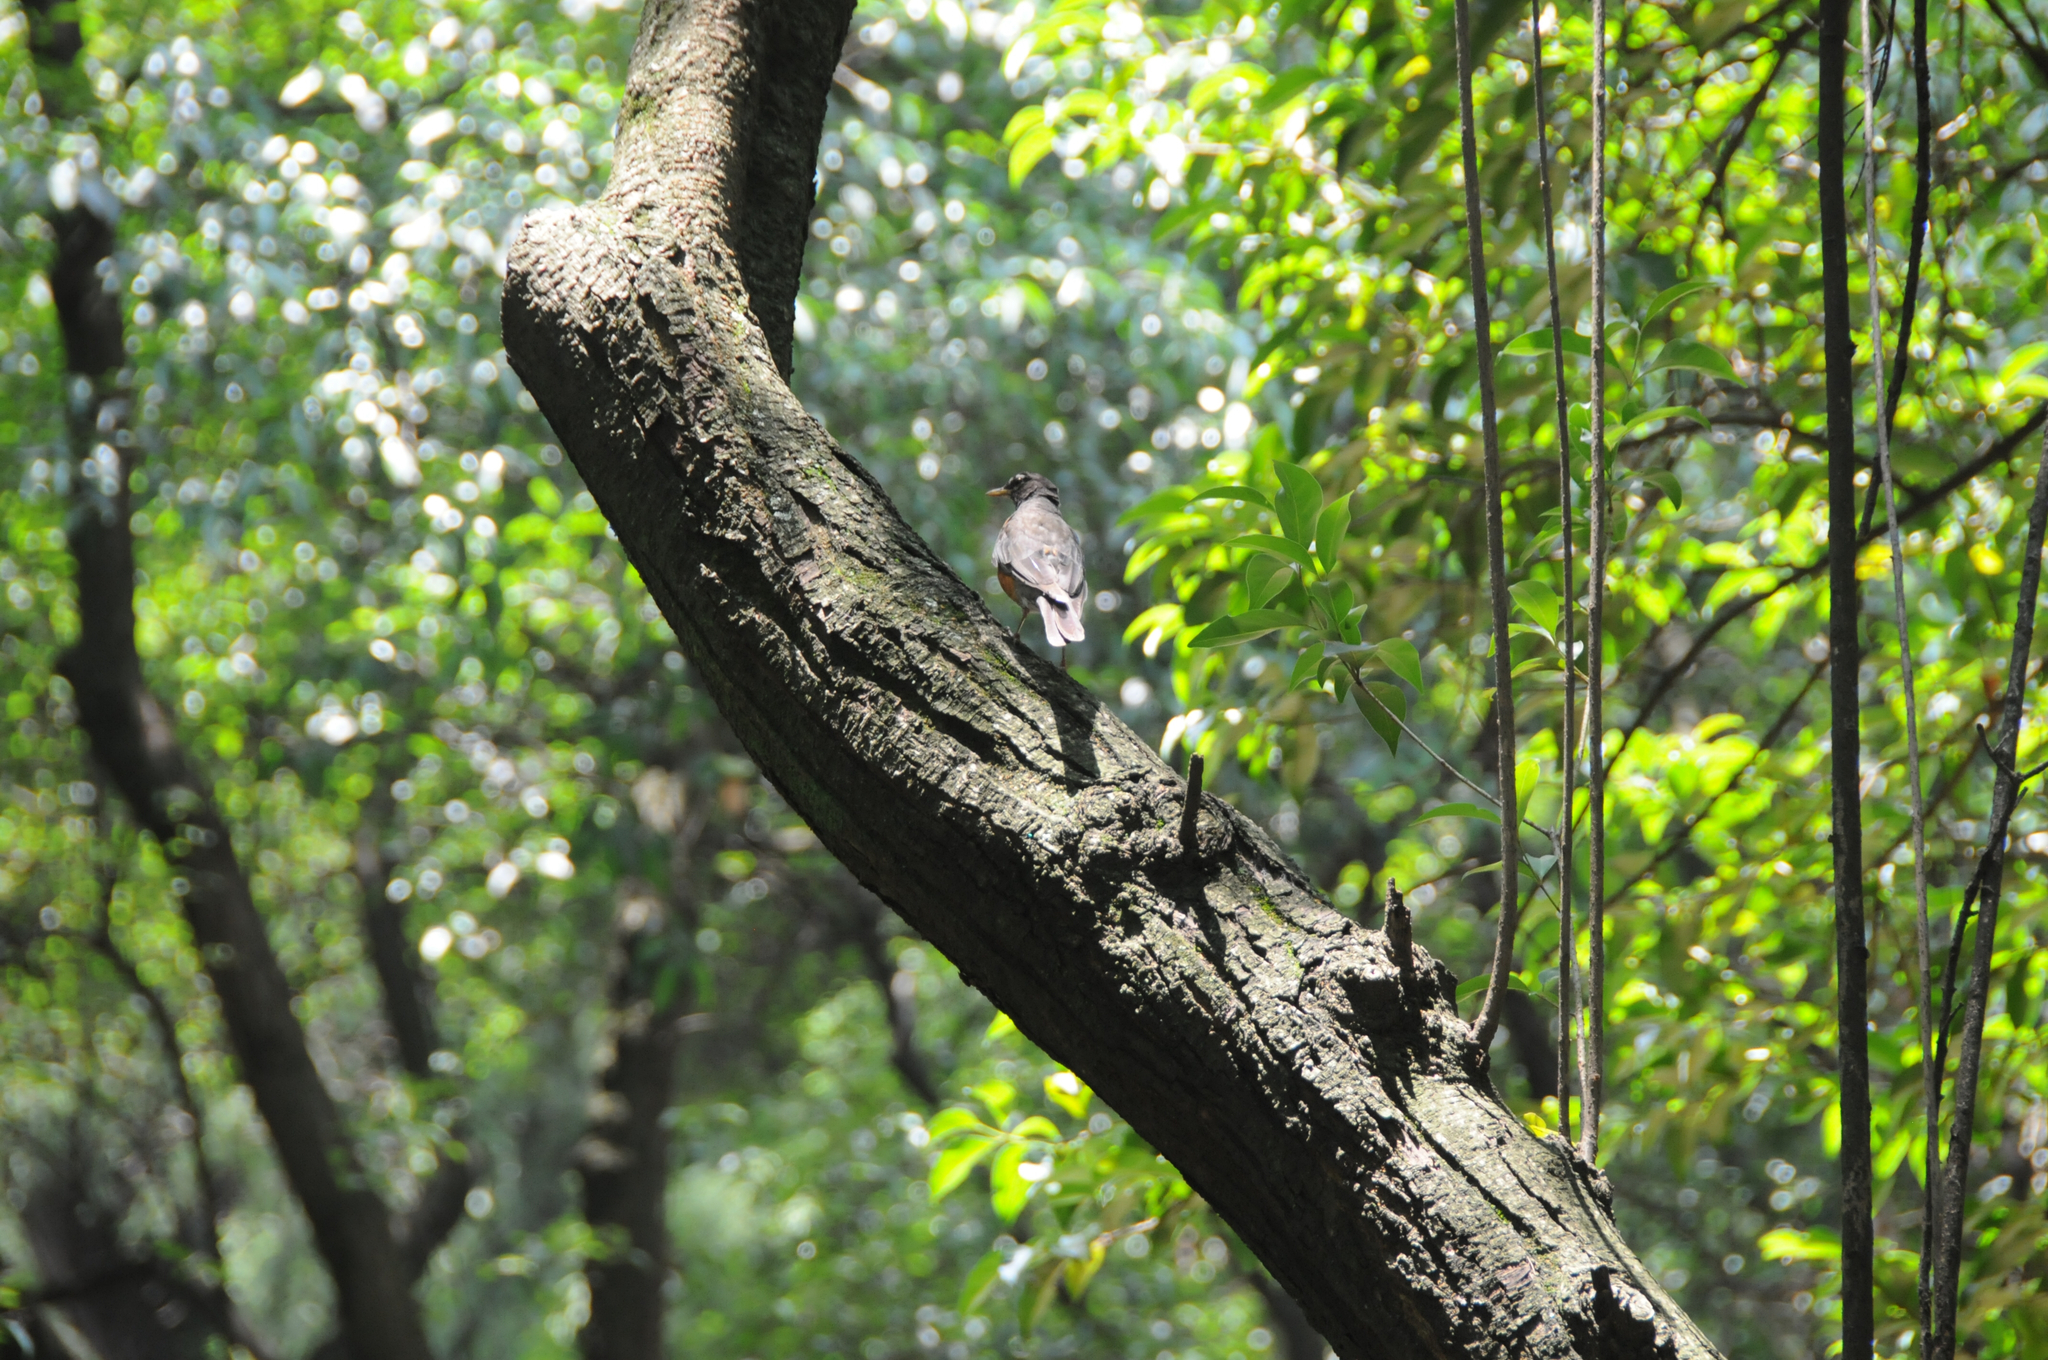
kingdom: Animalia
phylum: Chordata
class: Aves
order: Passeriformes
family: Turdidae
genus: Turdus
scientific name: Turdus migratorius
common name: American robin
